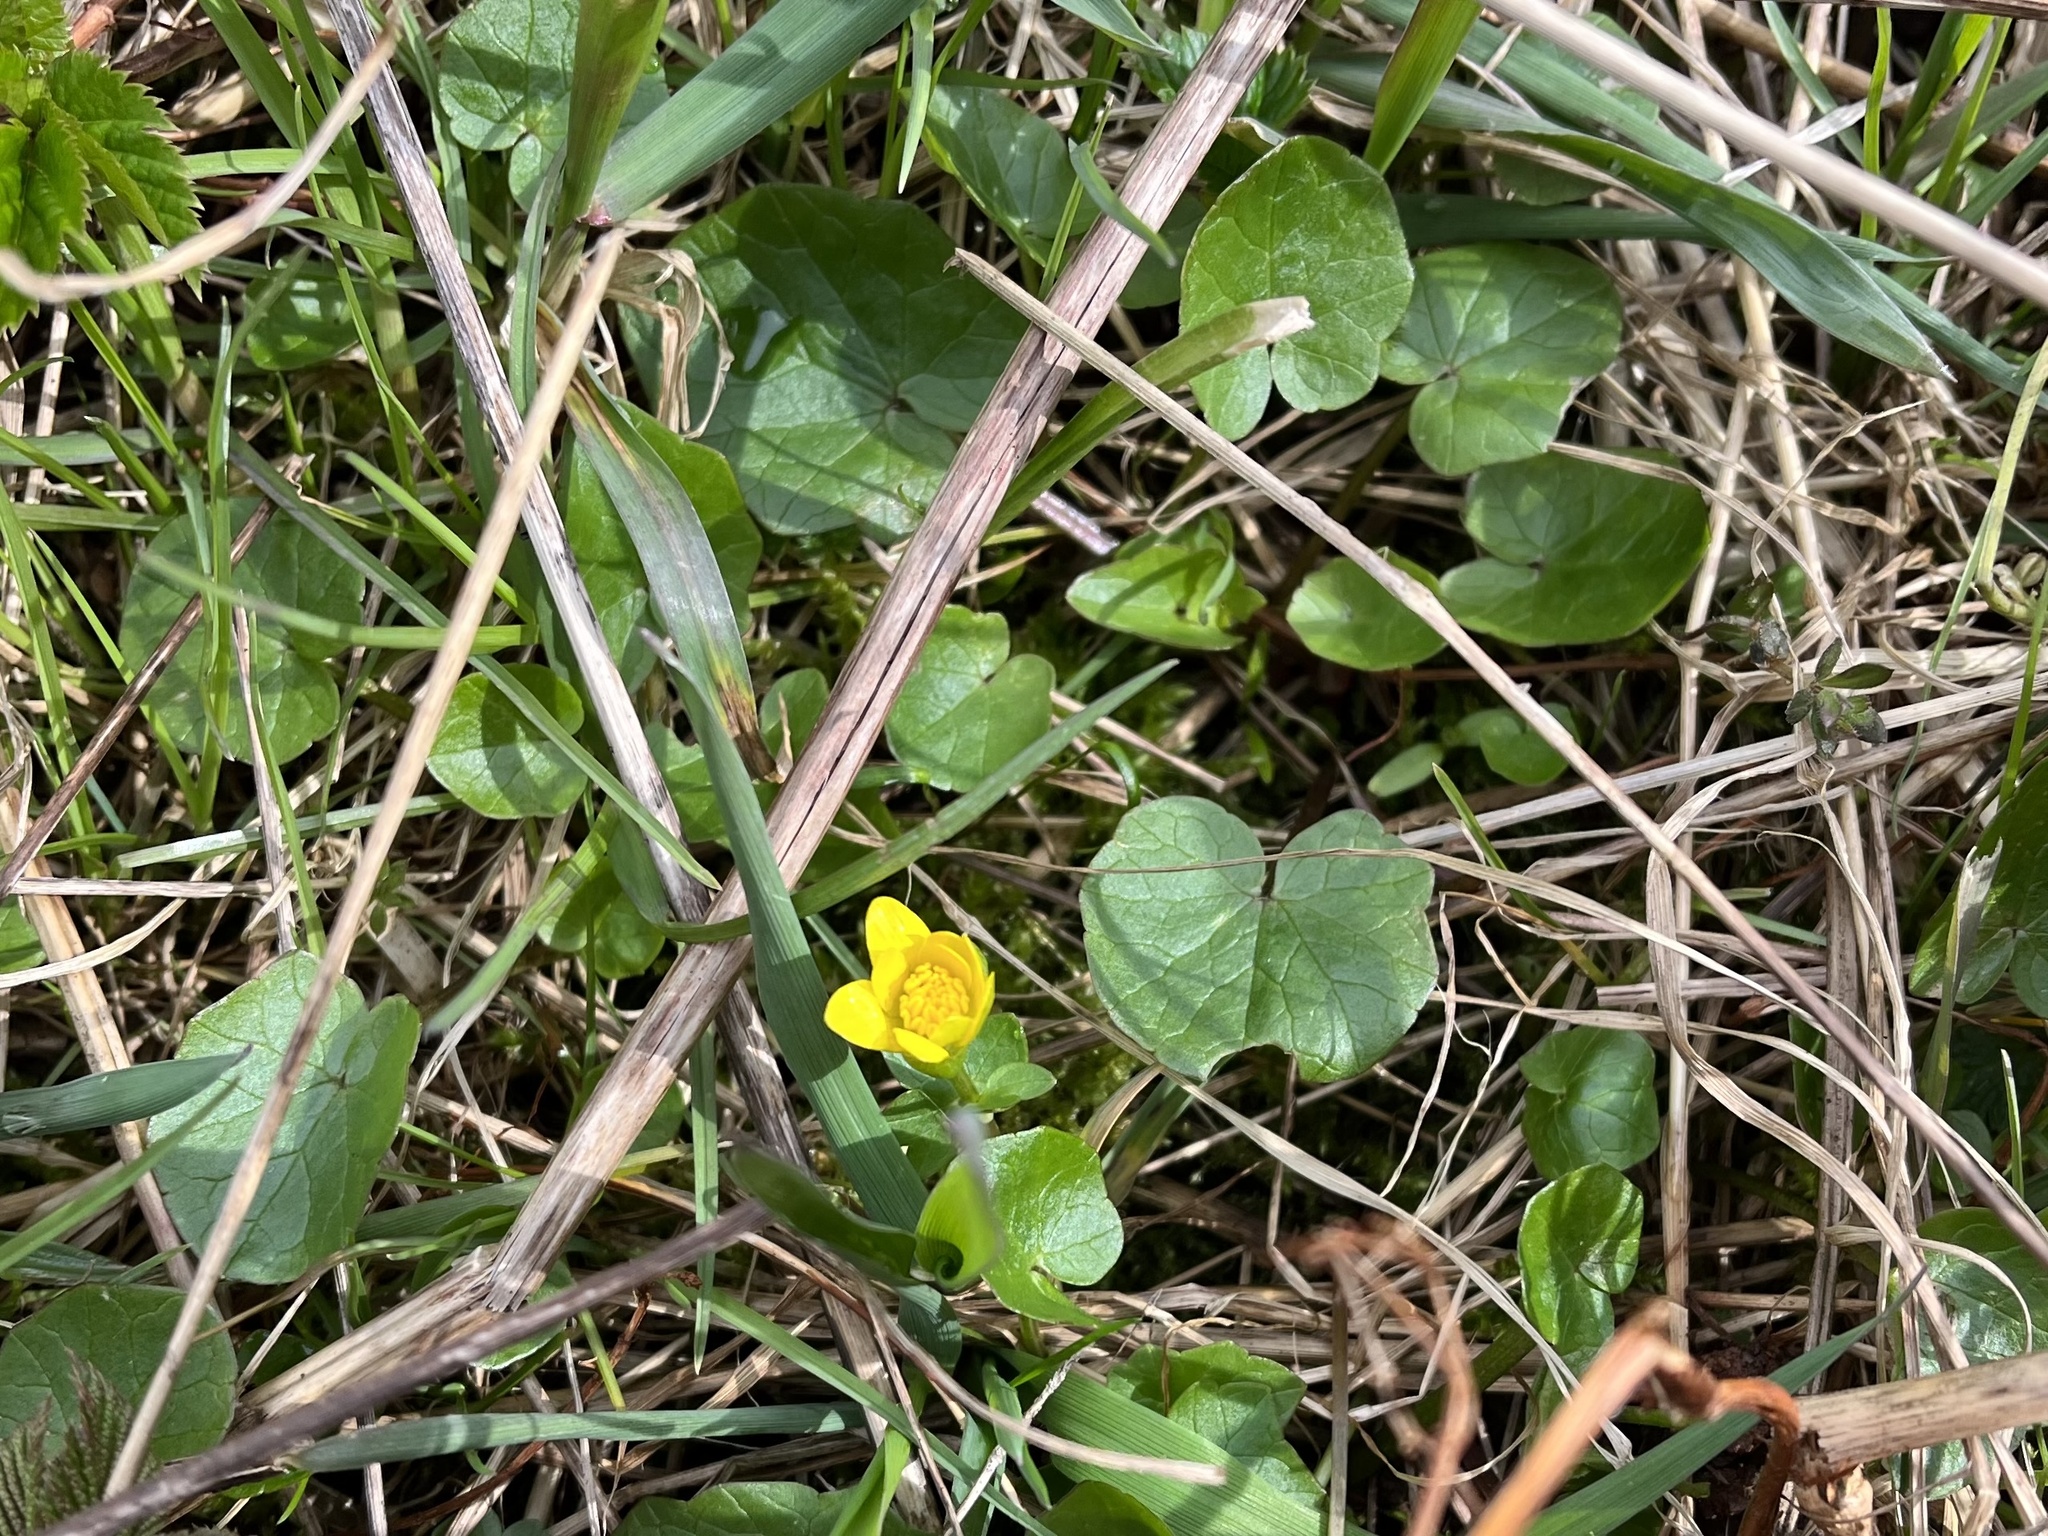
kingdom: Plantae
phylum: Tracheophyta
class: Magnoliopsida
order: Ranunculales
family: Ranunculaceae
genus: Ficaria
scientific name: Ficaria verna
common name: Lesser celandine
